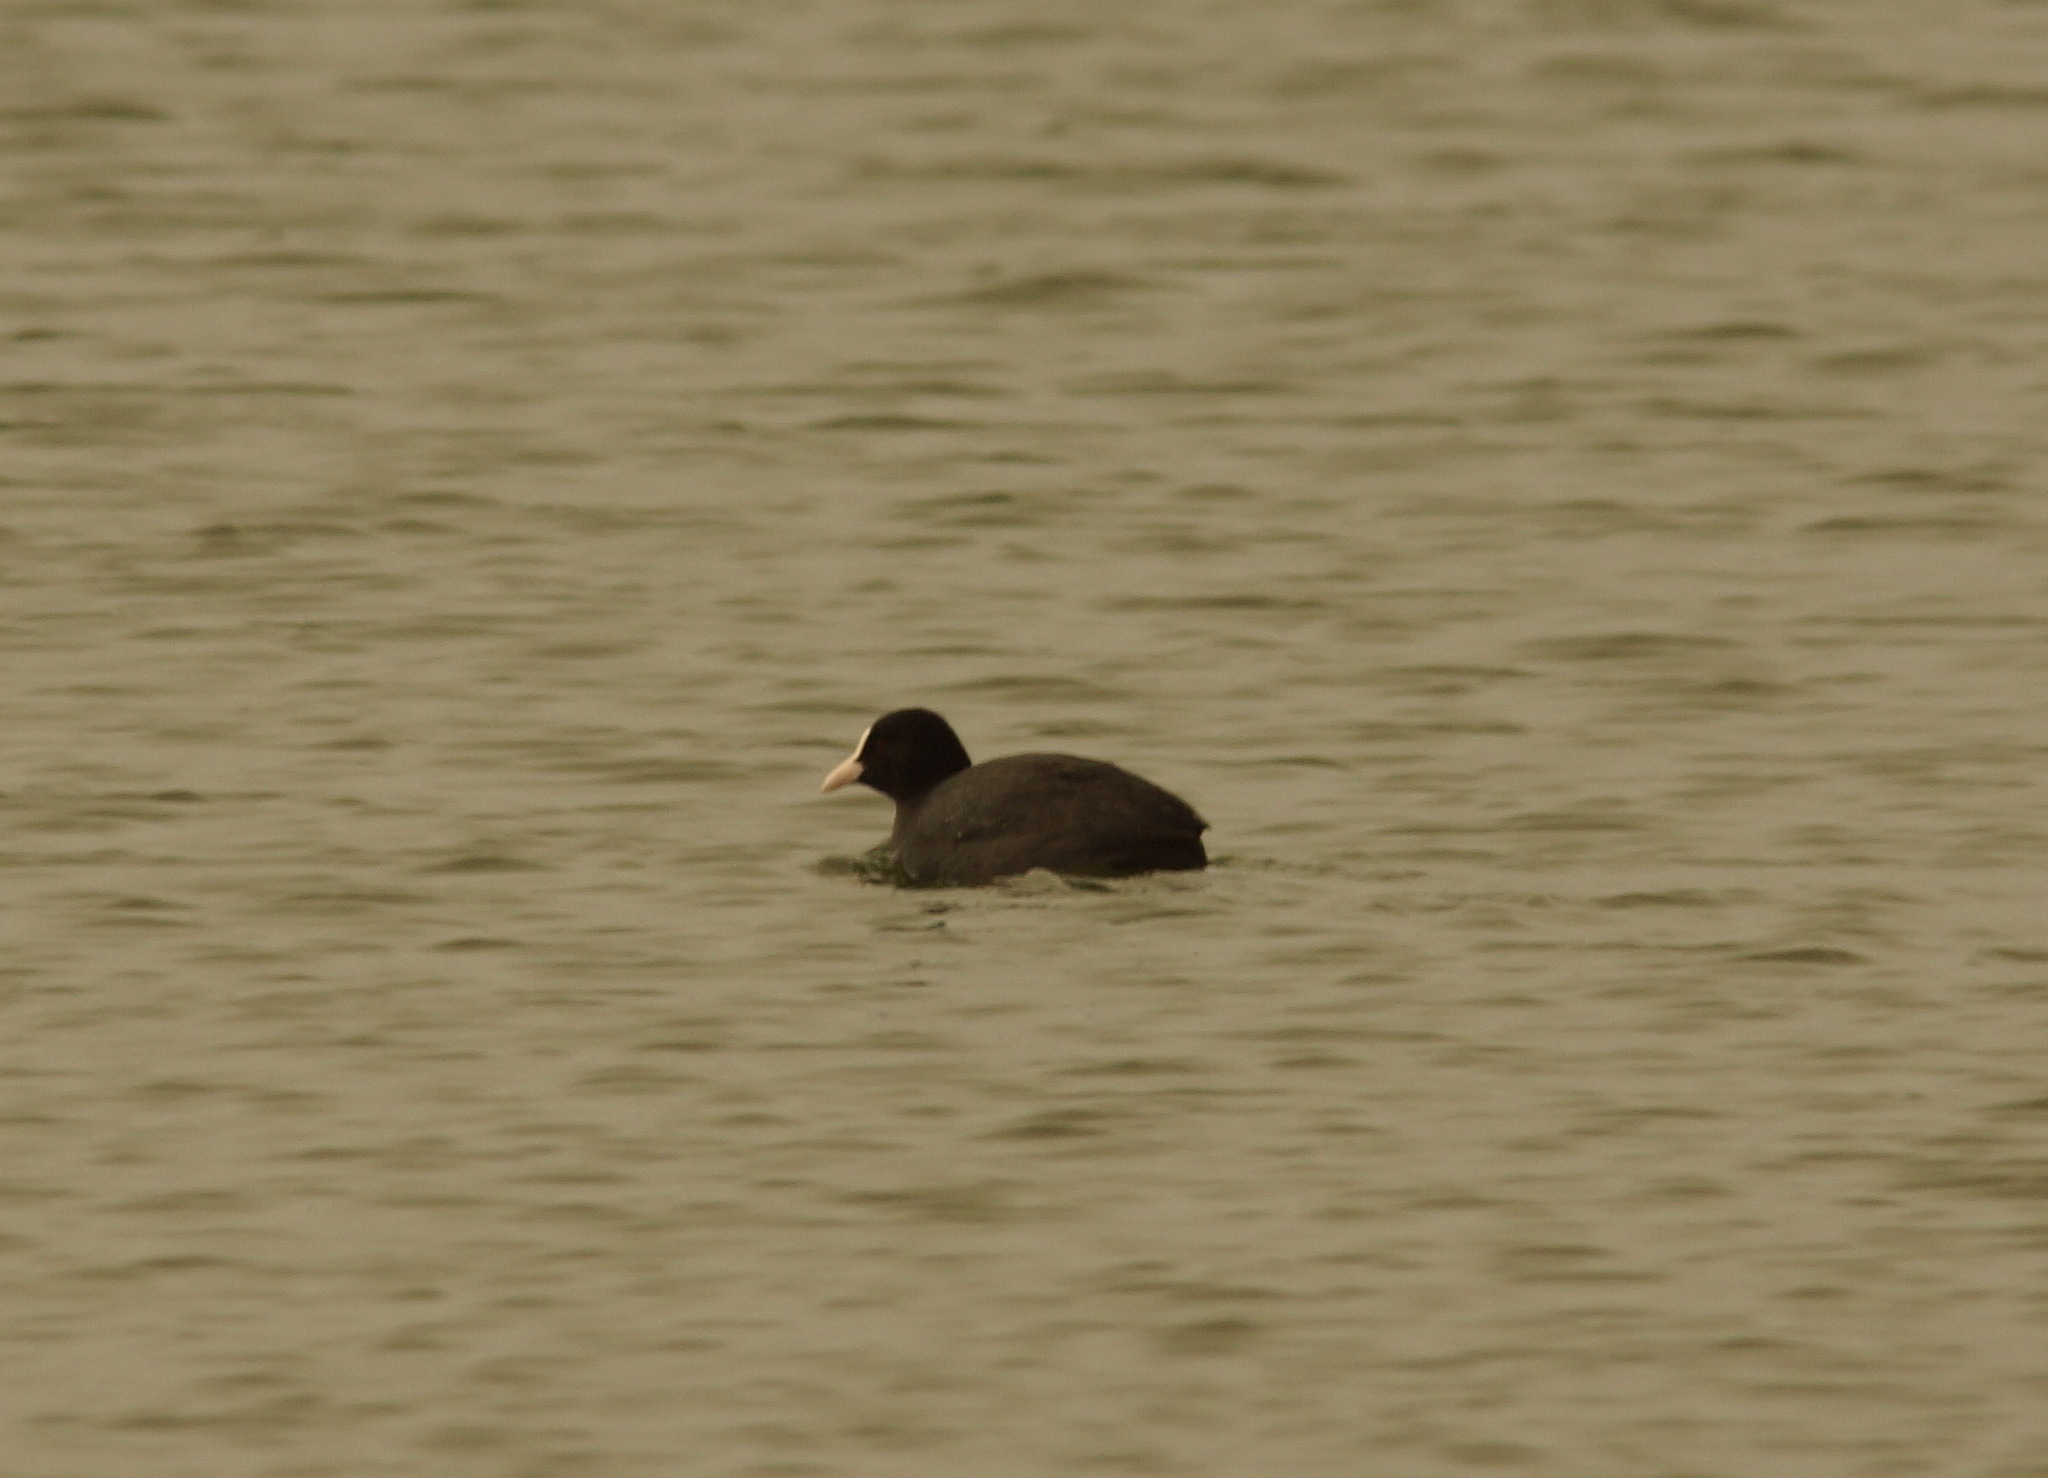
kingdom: Animalia
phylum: Chordata
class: Aves
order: Gruiformes
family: Rallidae
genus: Fulica
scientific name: Fulica atra
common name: Eurasian coot
